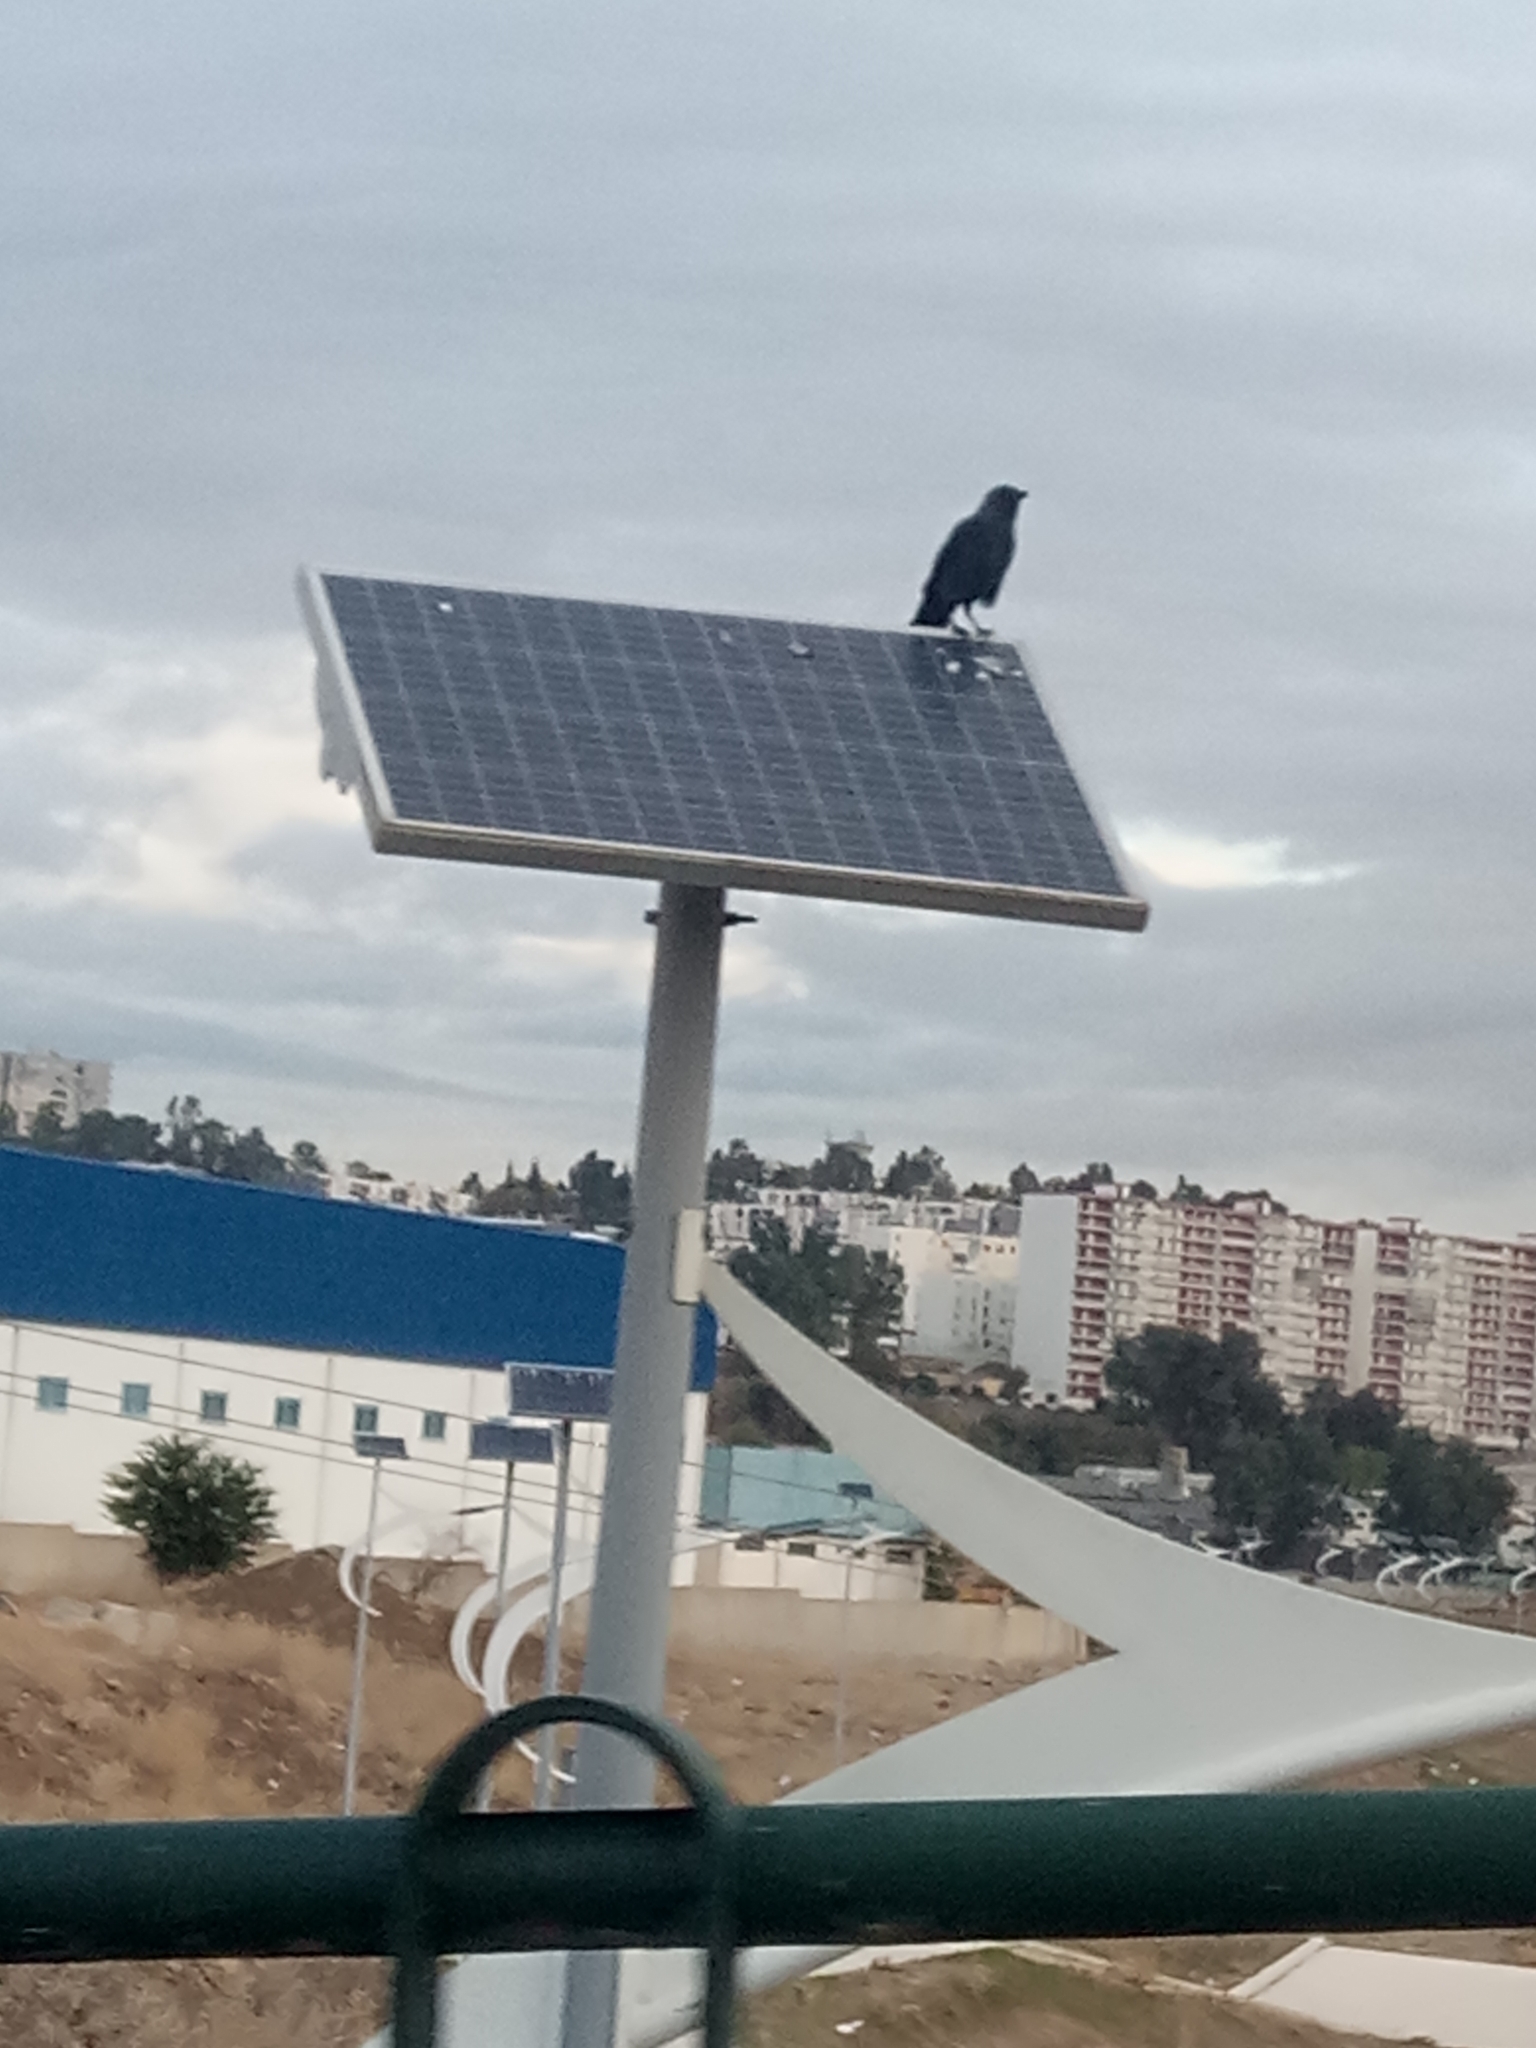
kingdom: Animalia
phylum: Chordata
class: Aves
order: Passeriformes
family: Corvidae
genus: Coloeus
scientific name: Coloeus monedula
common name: Western jackdaw
